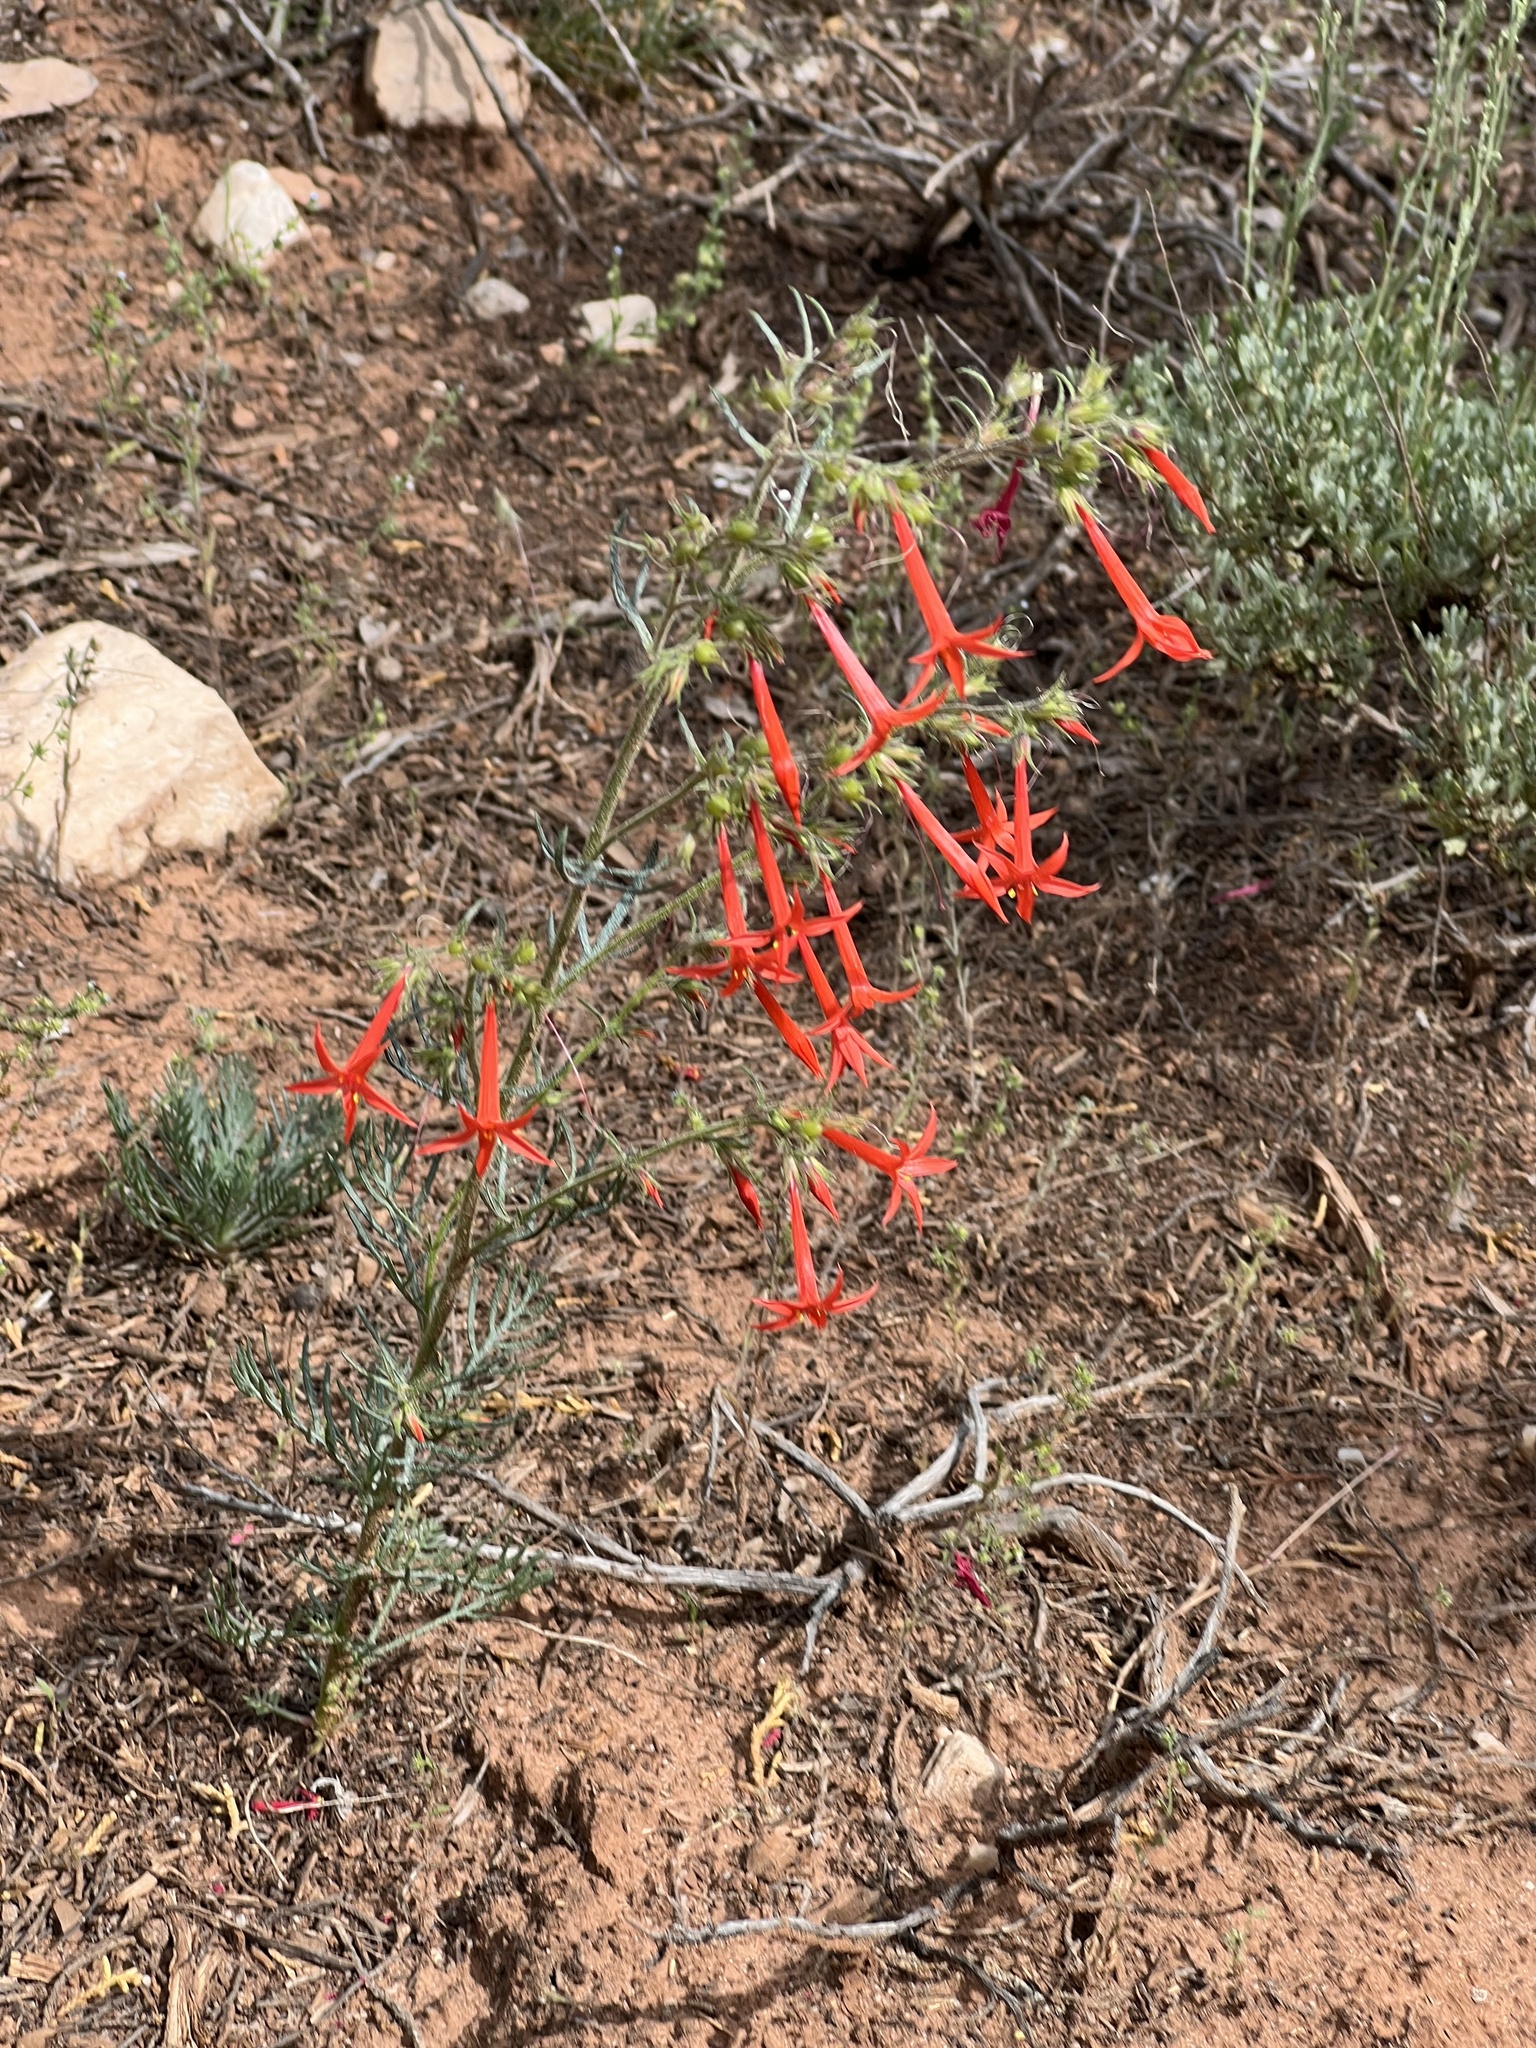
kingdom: Plantae
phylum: Tracheophyta
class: Magnoliopsida
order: Ericales
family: Polemoniaceae
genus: Ipomopsis
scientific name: Ipomopsis aggregata
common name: Scarlet gilia
